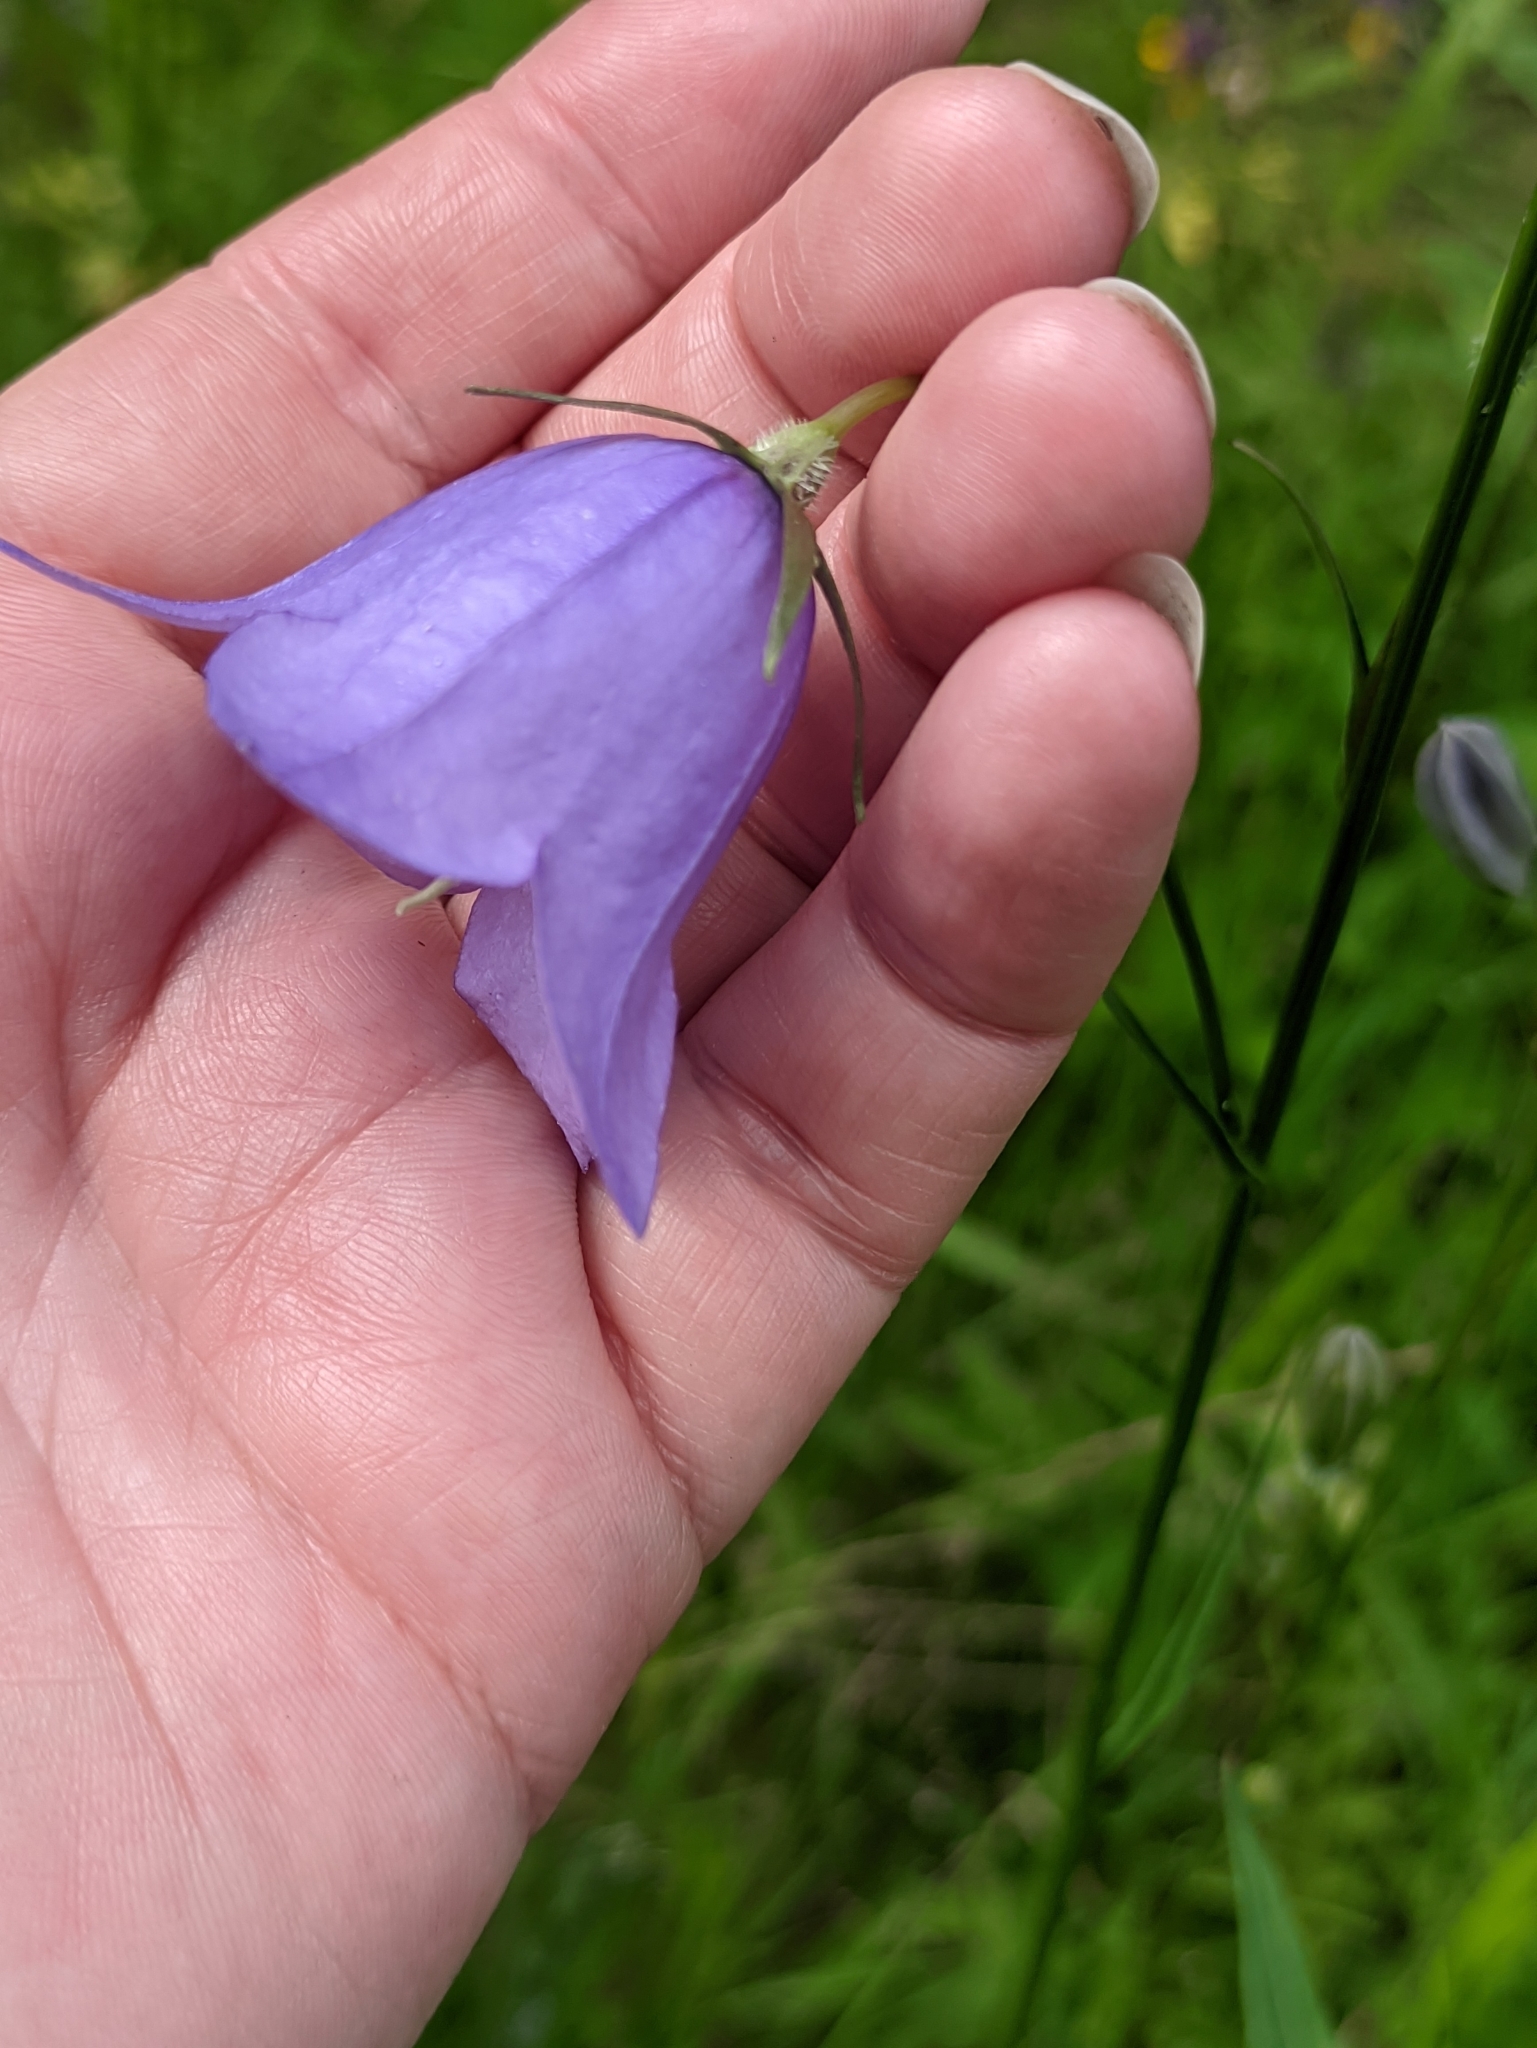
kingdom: Plantae
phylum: Tracheophyta
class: Magnoliopsida
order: Asterales
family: Campanulaceae
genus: Campanula
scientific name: Campanula persicifolia
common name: Peach-leaved bellflower
